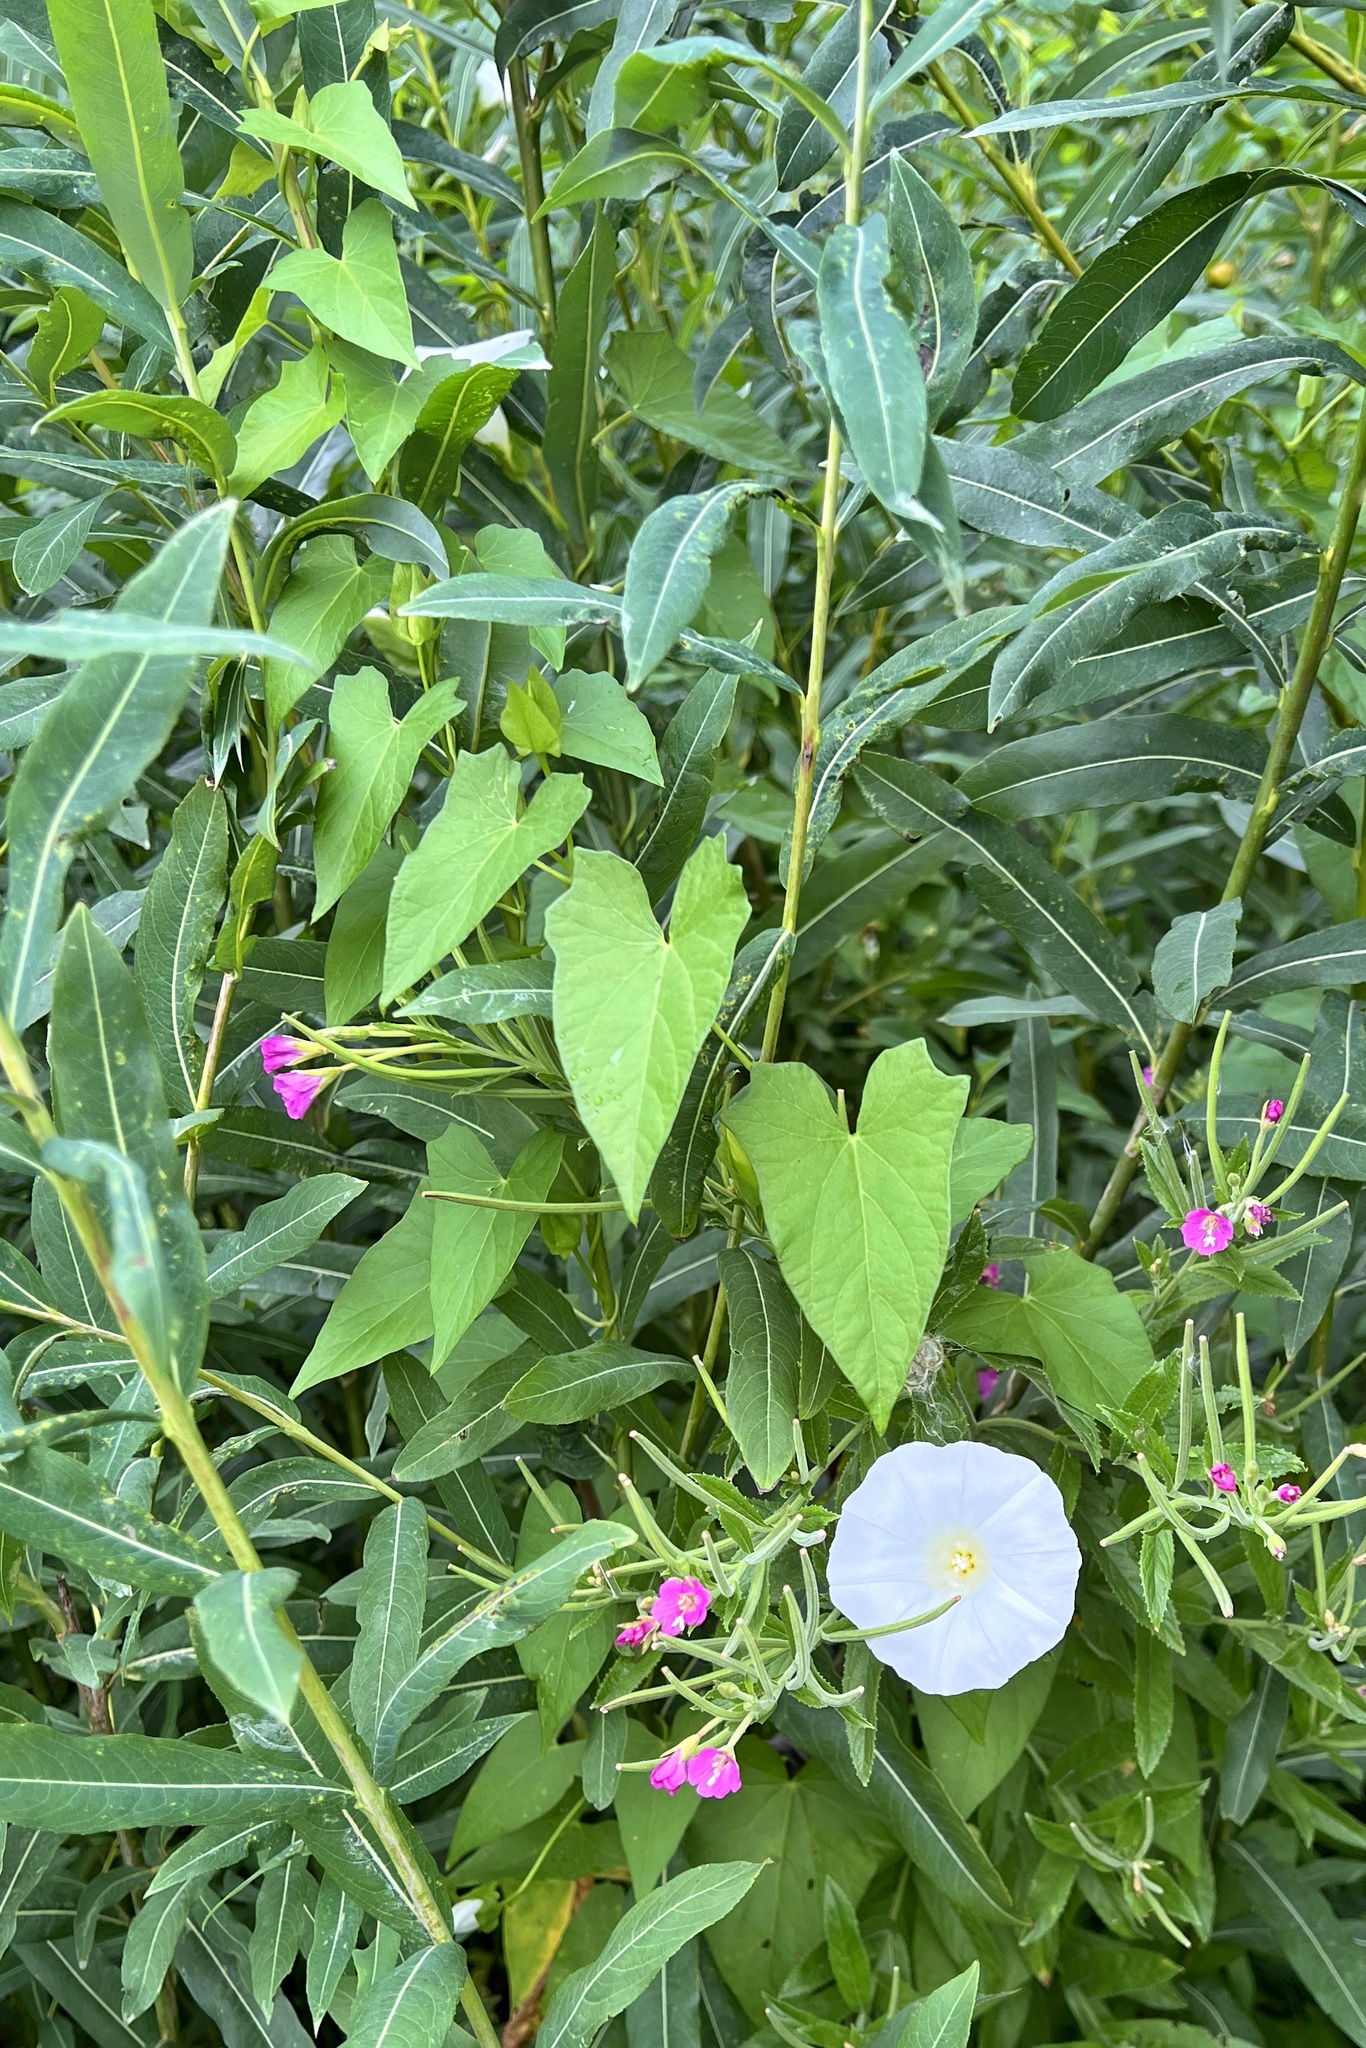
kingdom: Plantae
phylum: Tracheophyta
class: Magnoliopsida
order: Solanales
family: Convolvulaceae
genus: Calystegia
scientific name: Calystegia sepium
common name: Hedge bindweed
